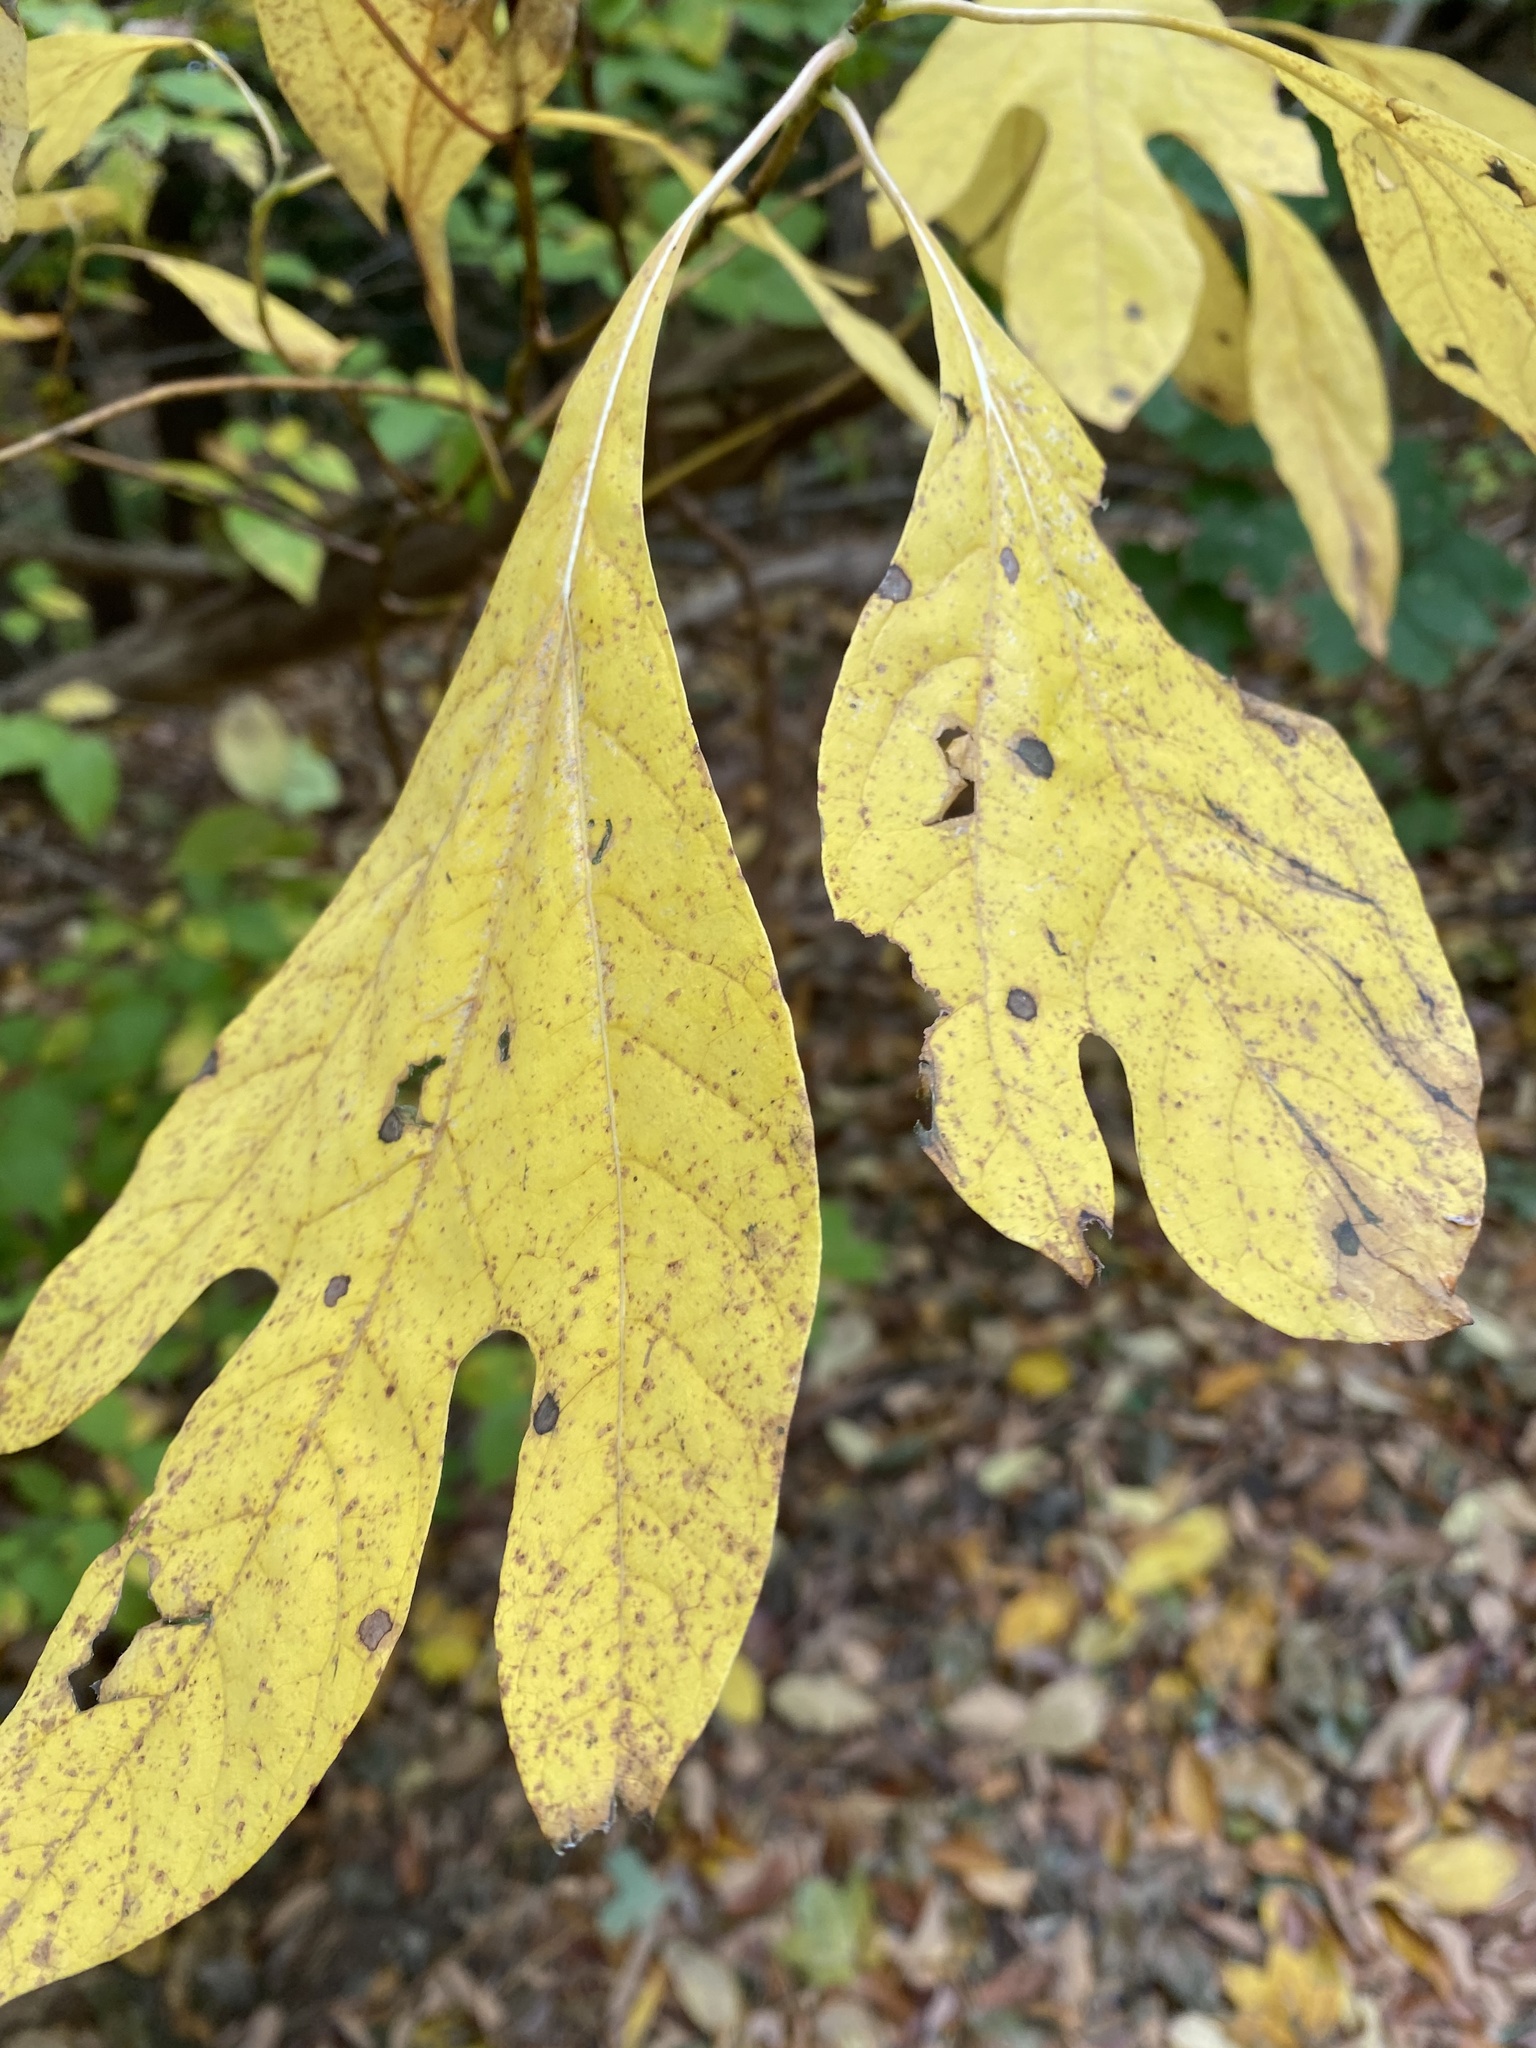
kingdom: Plantae
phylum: Tracheophyta
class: Magnoliopsida
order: Laurales
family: Lauraceae
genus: Sassafras
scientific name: Sassafras albidum
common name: Sassafras
